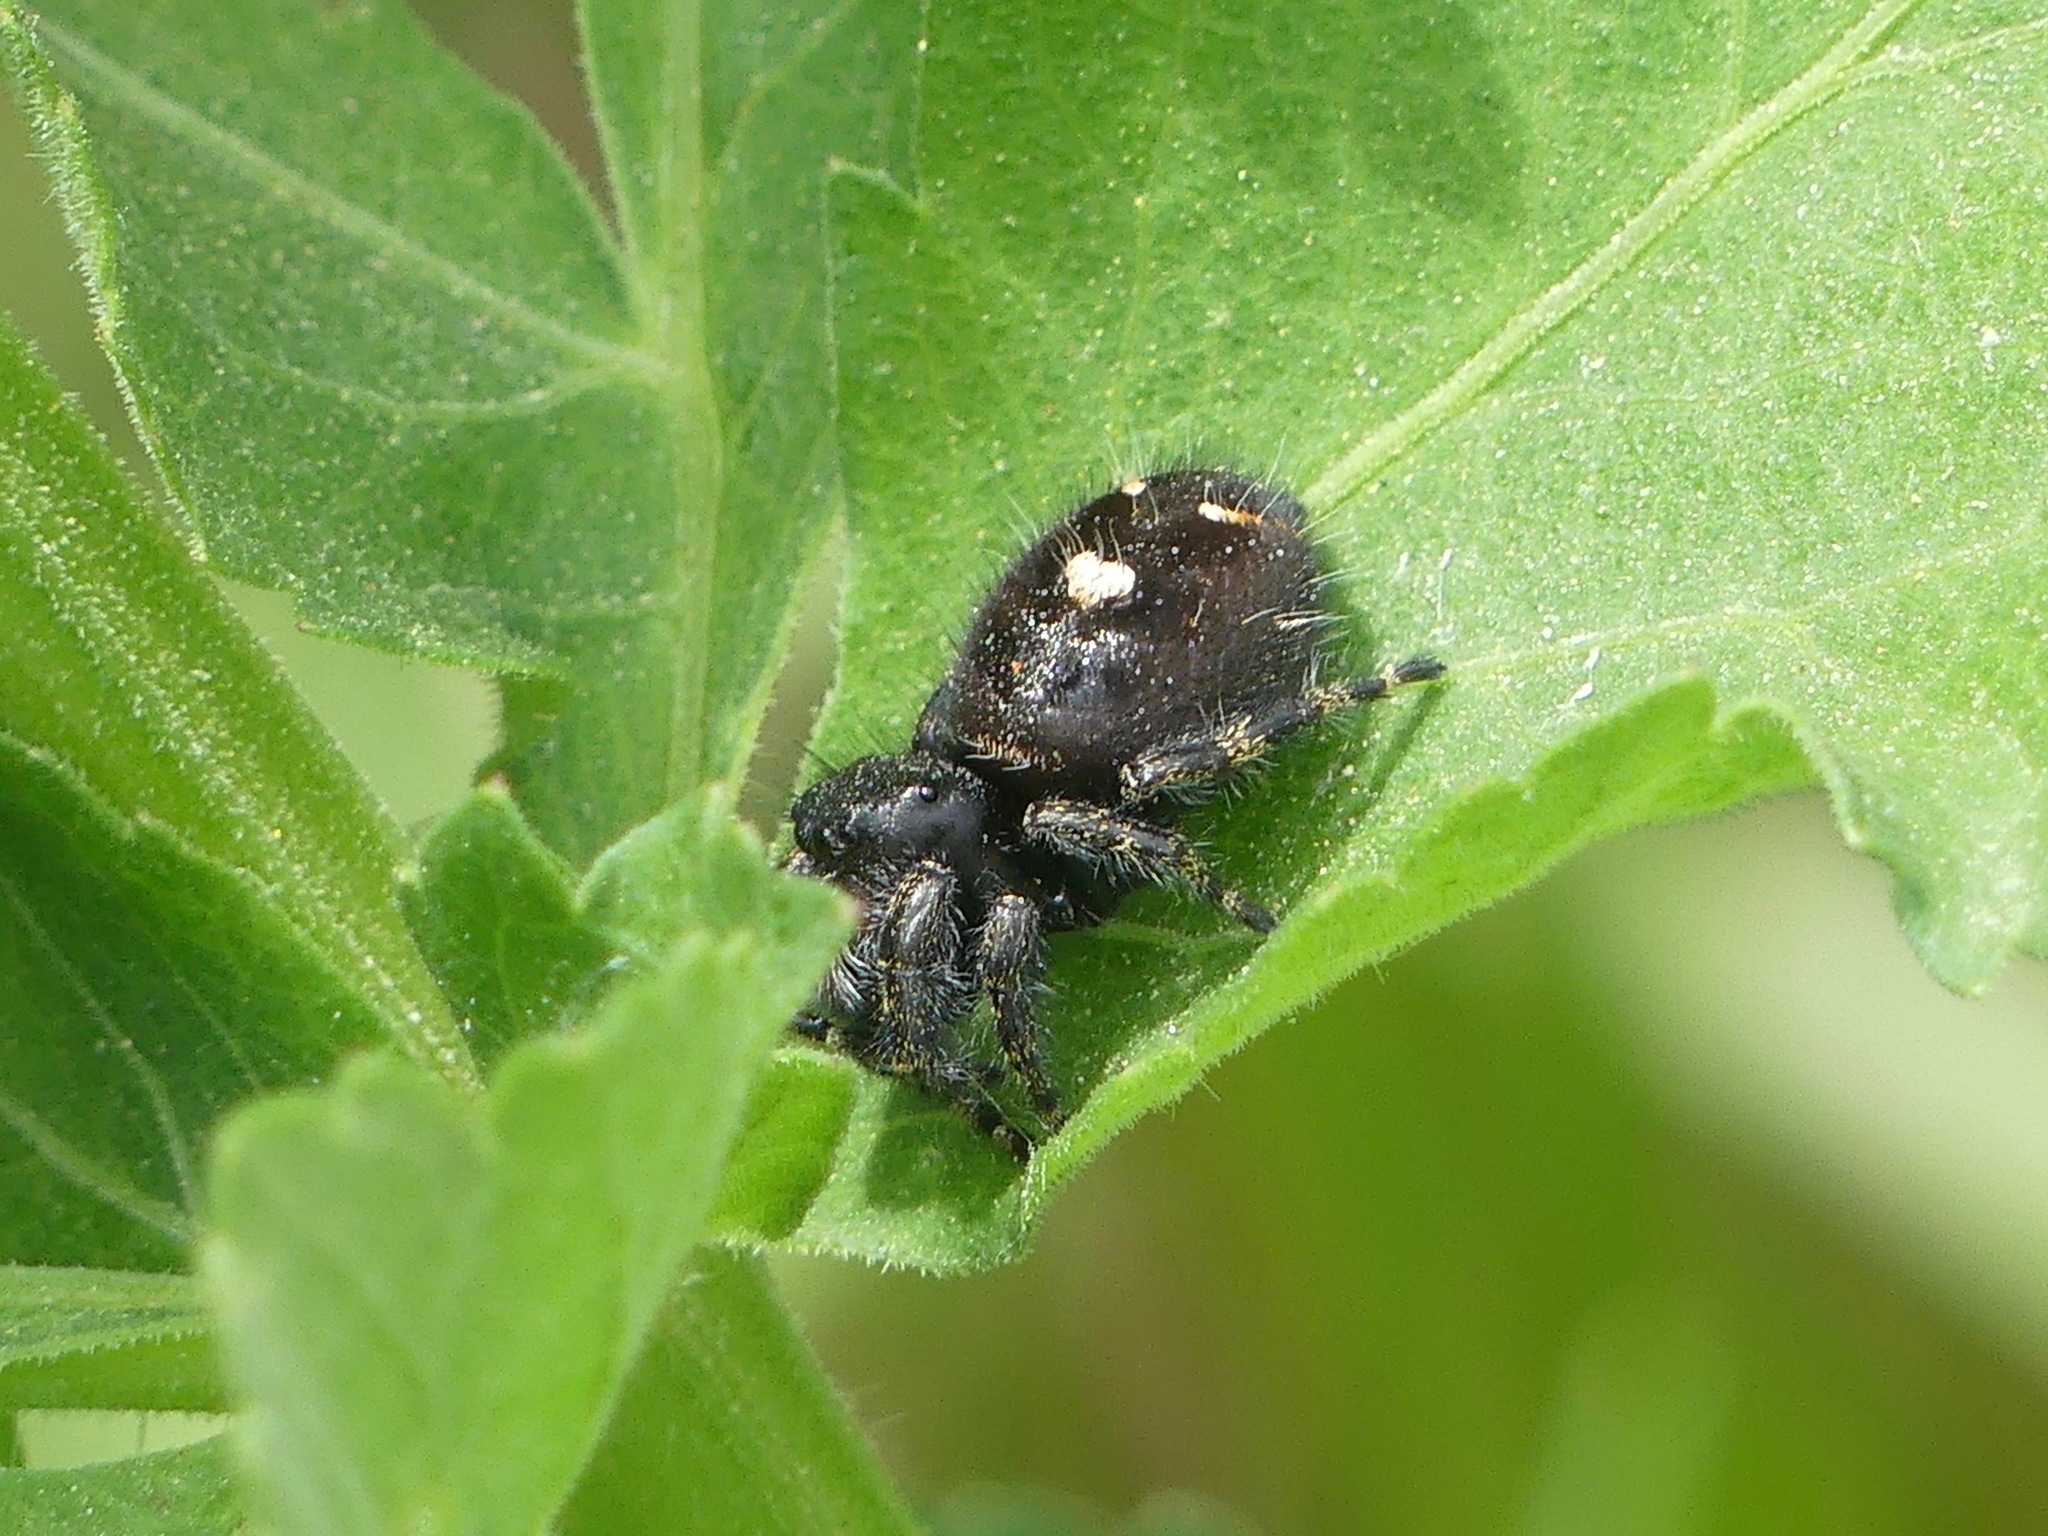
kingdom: Animalia
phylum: Arthropoda
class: Arachnida
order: Araneae
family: Salticidae
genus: Phidippus
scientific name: Phidippus audax
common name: Bold jumper
